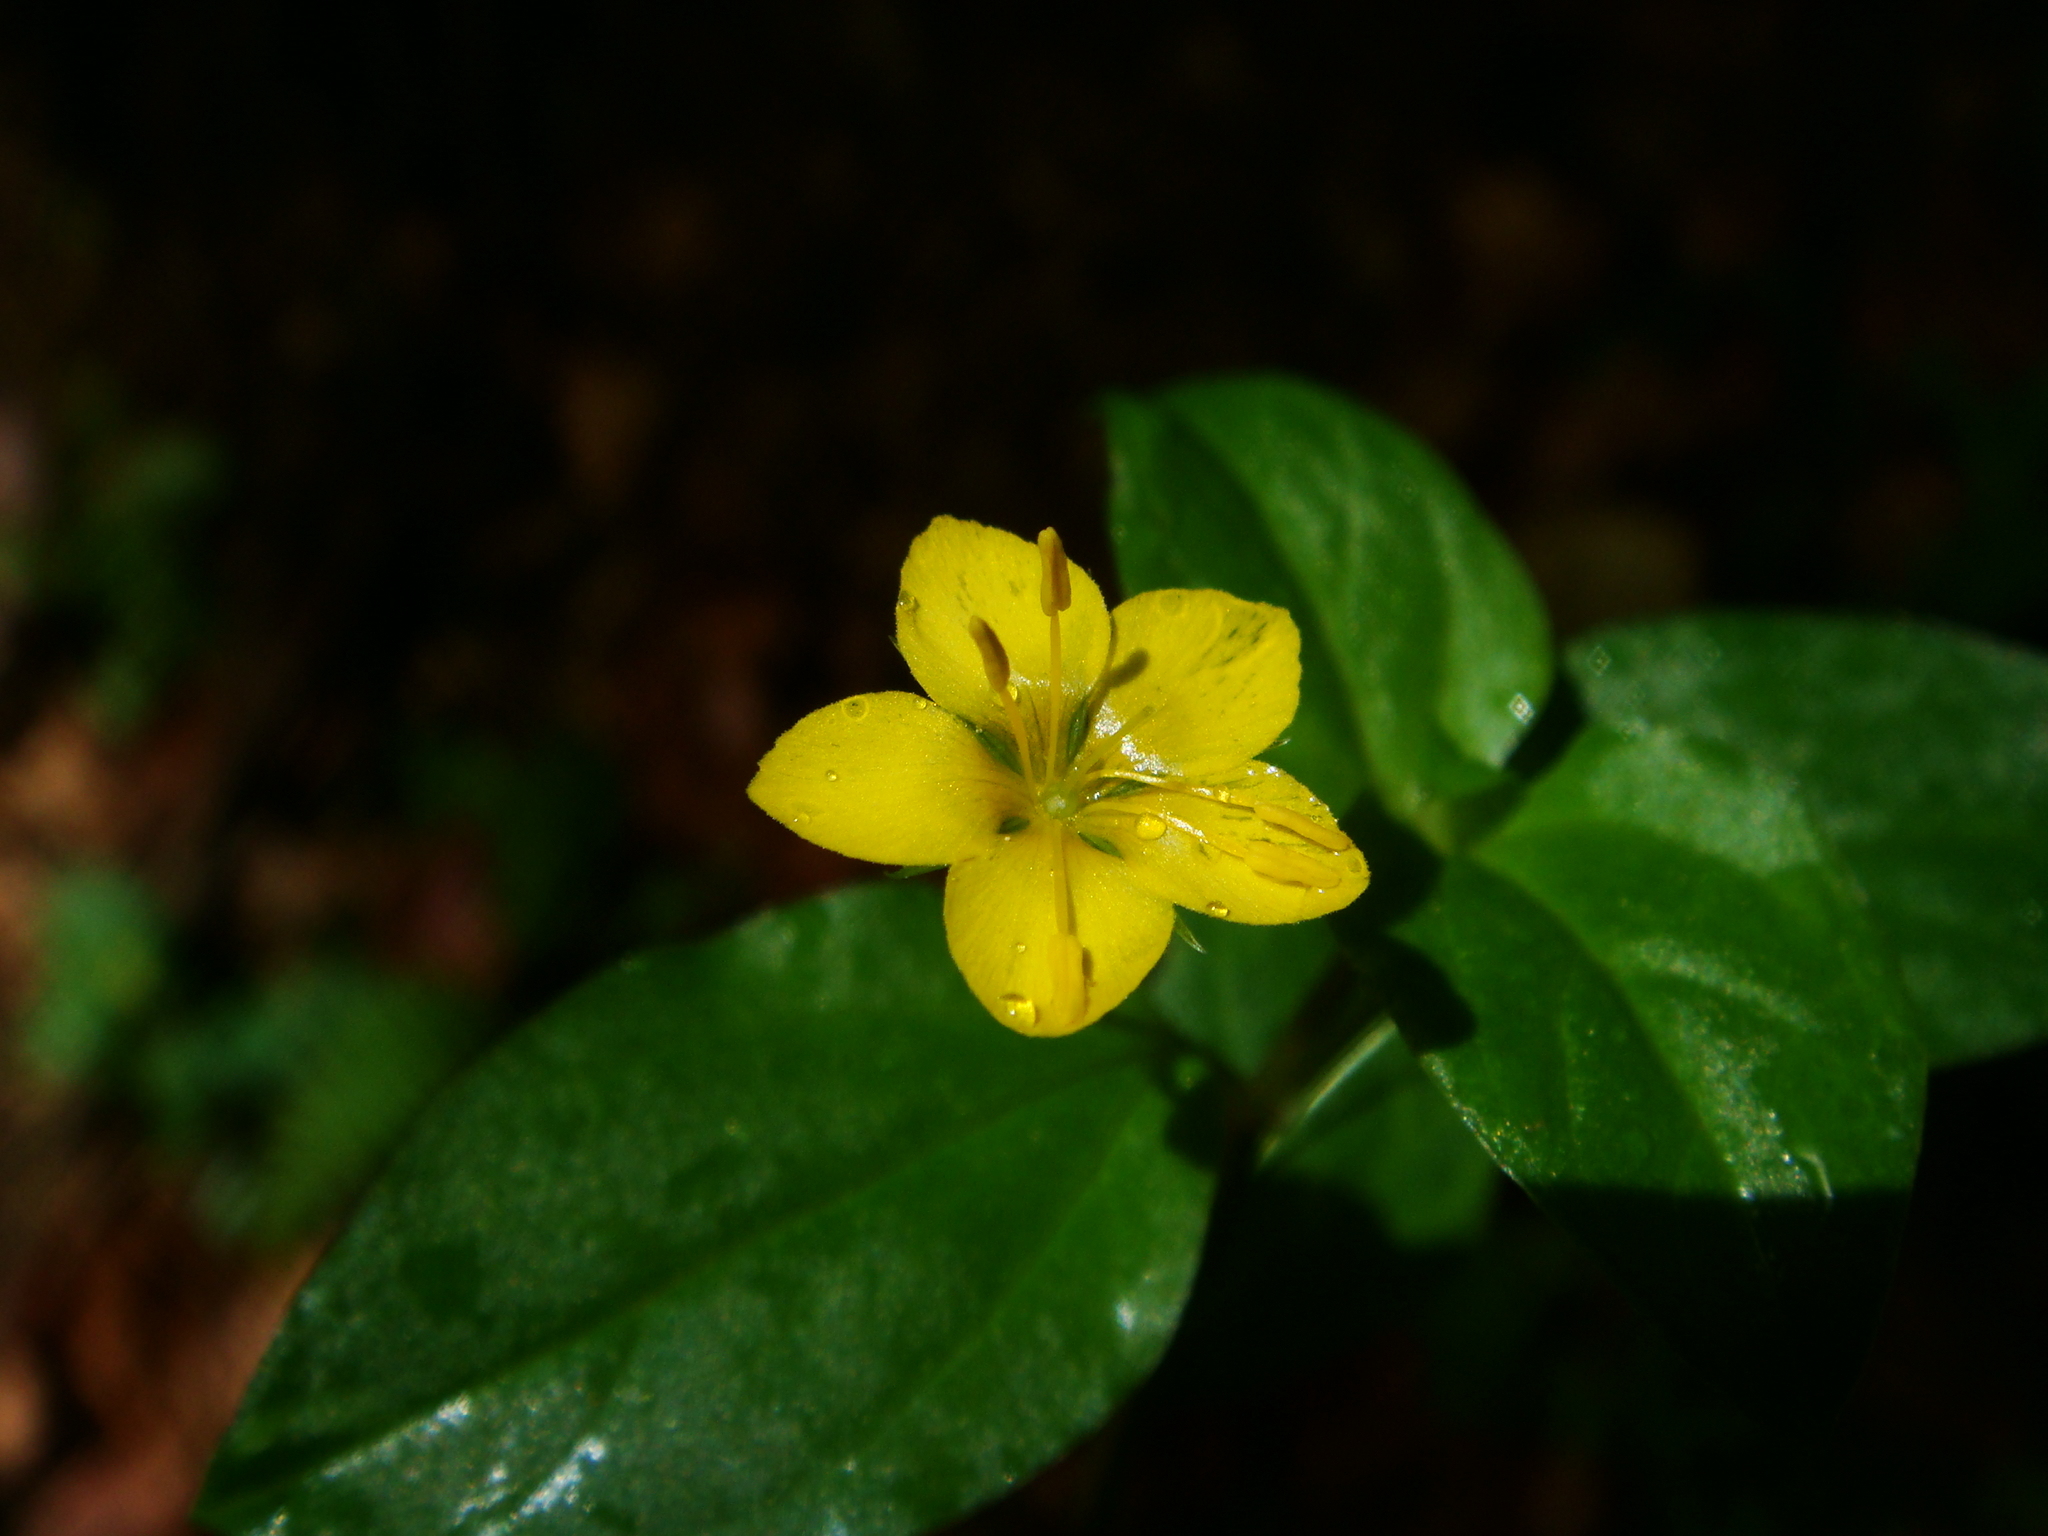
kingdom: Plantae
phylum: Tracheophyta
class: Magnoliopsida
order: Ericales
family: Primulaceae
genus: Lysimachia
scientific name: Lysimachia nemorum
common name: Yellow pimpernel
